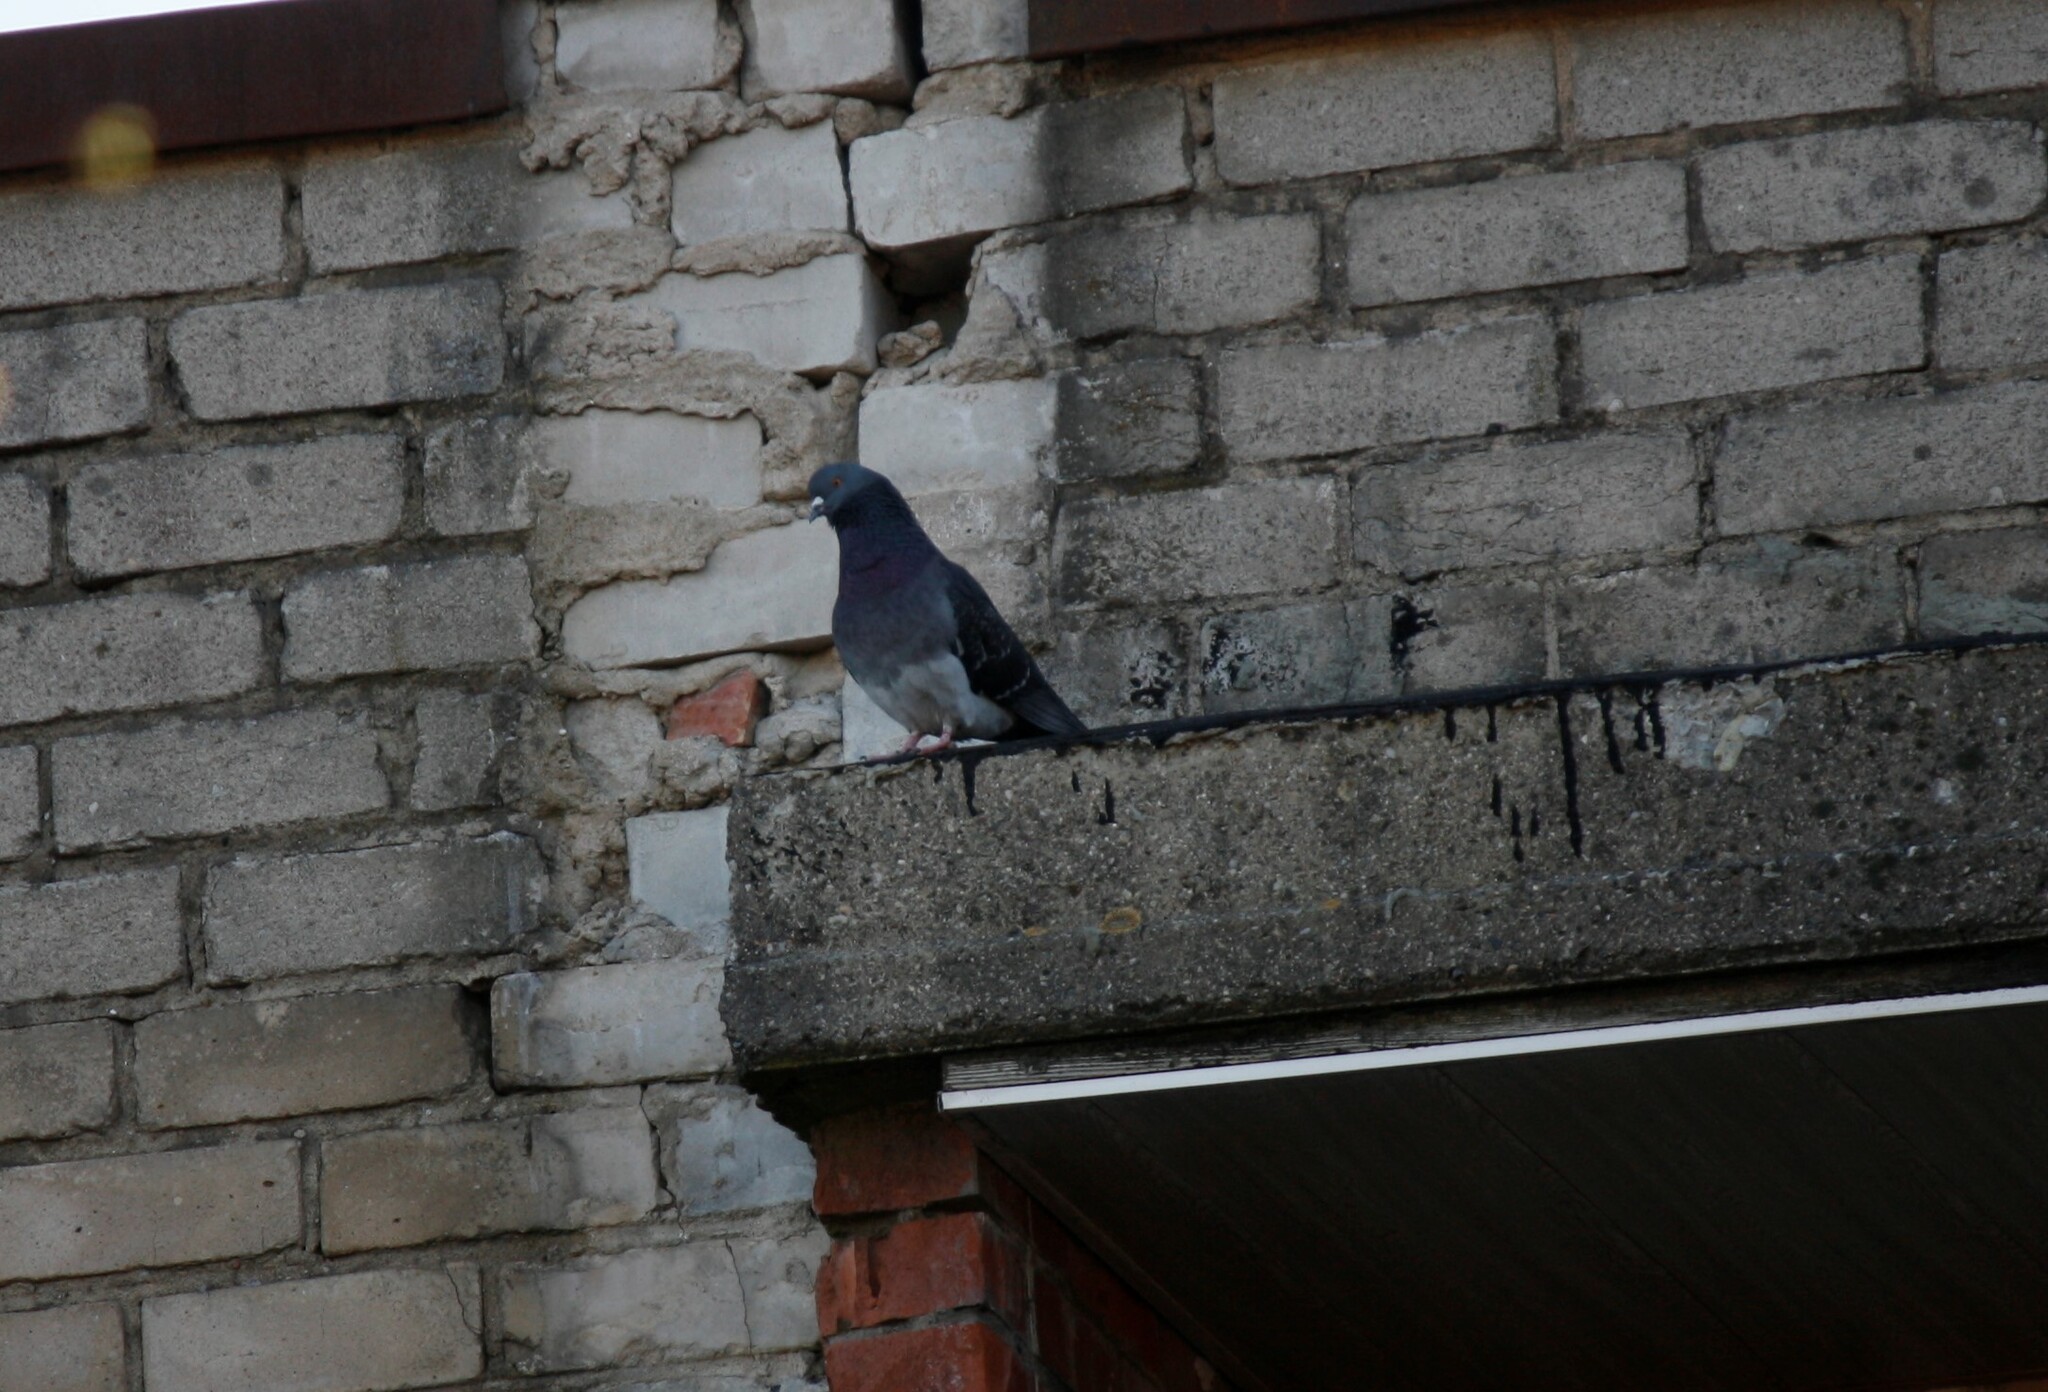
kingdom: Animalia
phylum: Chordata
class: Aves
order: Columbiformes
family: Columbidae
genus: Columba
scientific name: Columba livia
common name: Rock pigeon
